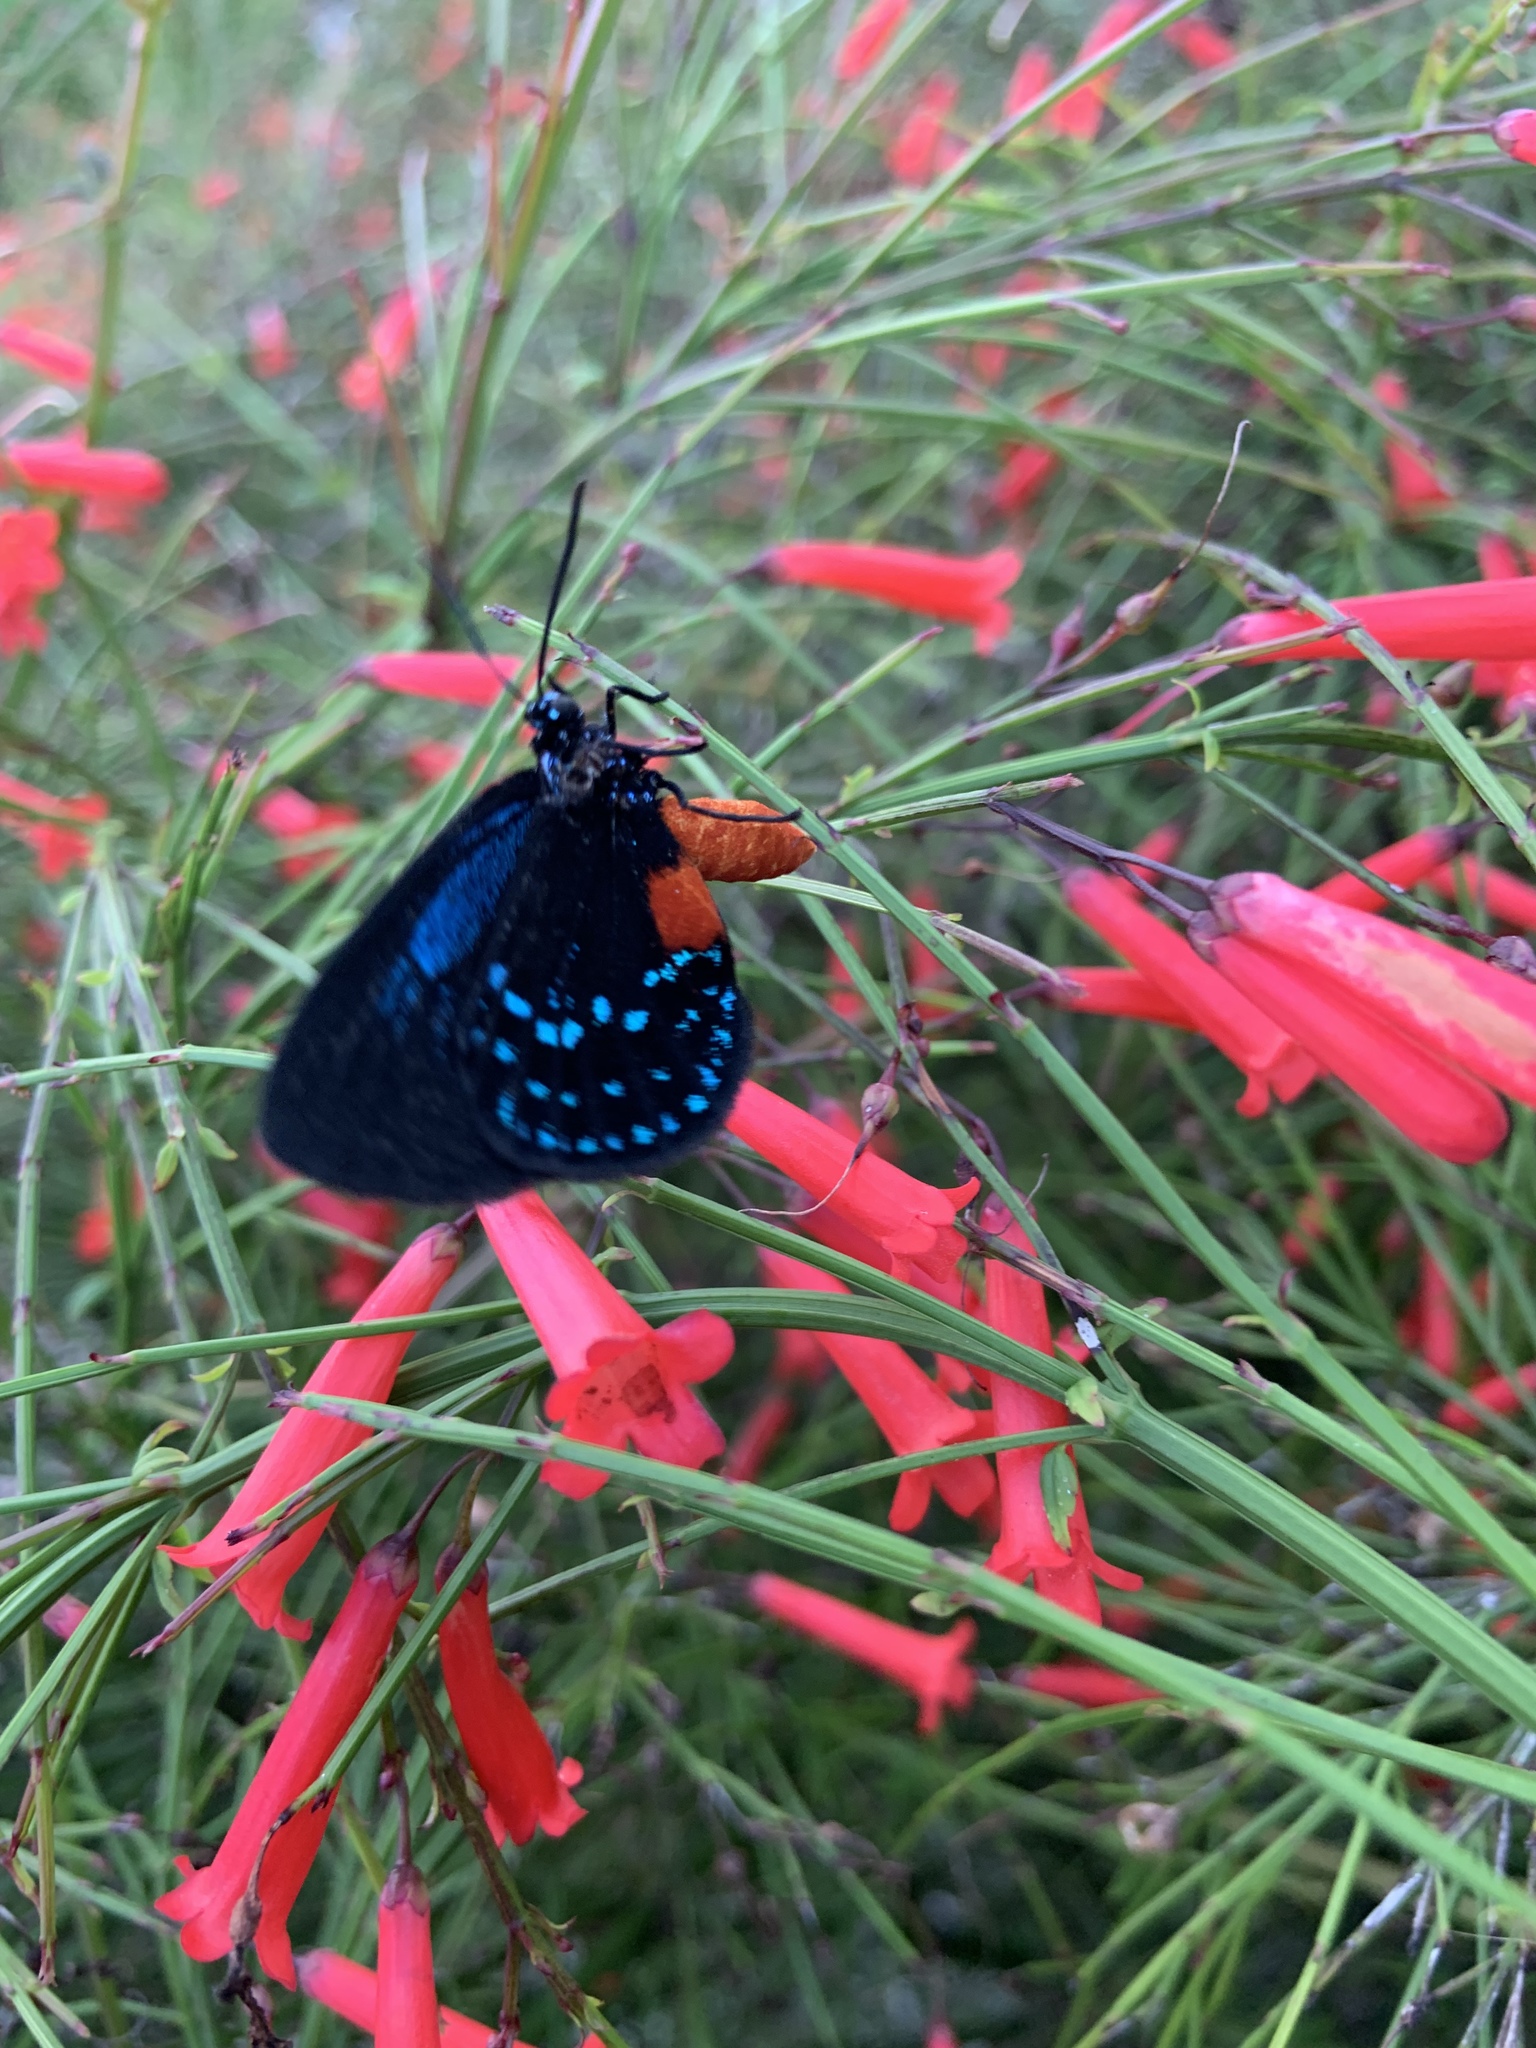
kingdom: Animalia
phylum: Arthropoda
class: Insecta
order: Lepidoptera
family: Lycaenidae
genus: Eumaeus
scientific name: Eumaeus atala
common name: Atala
